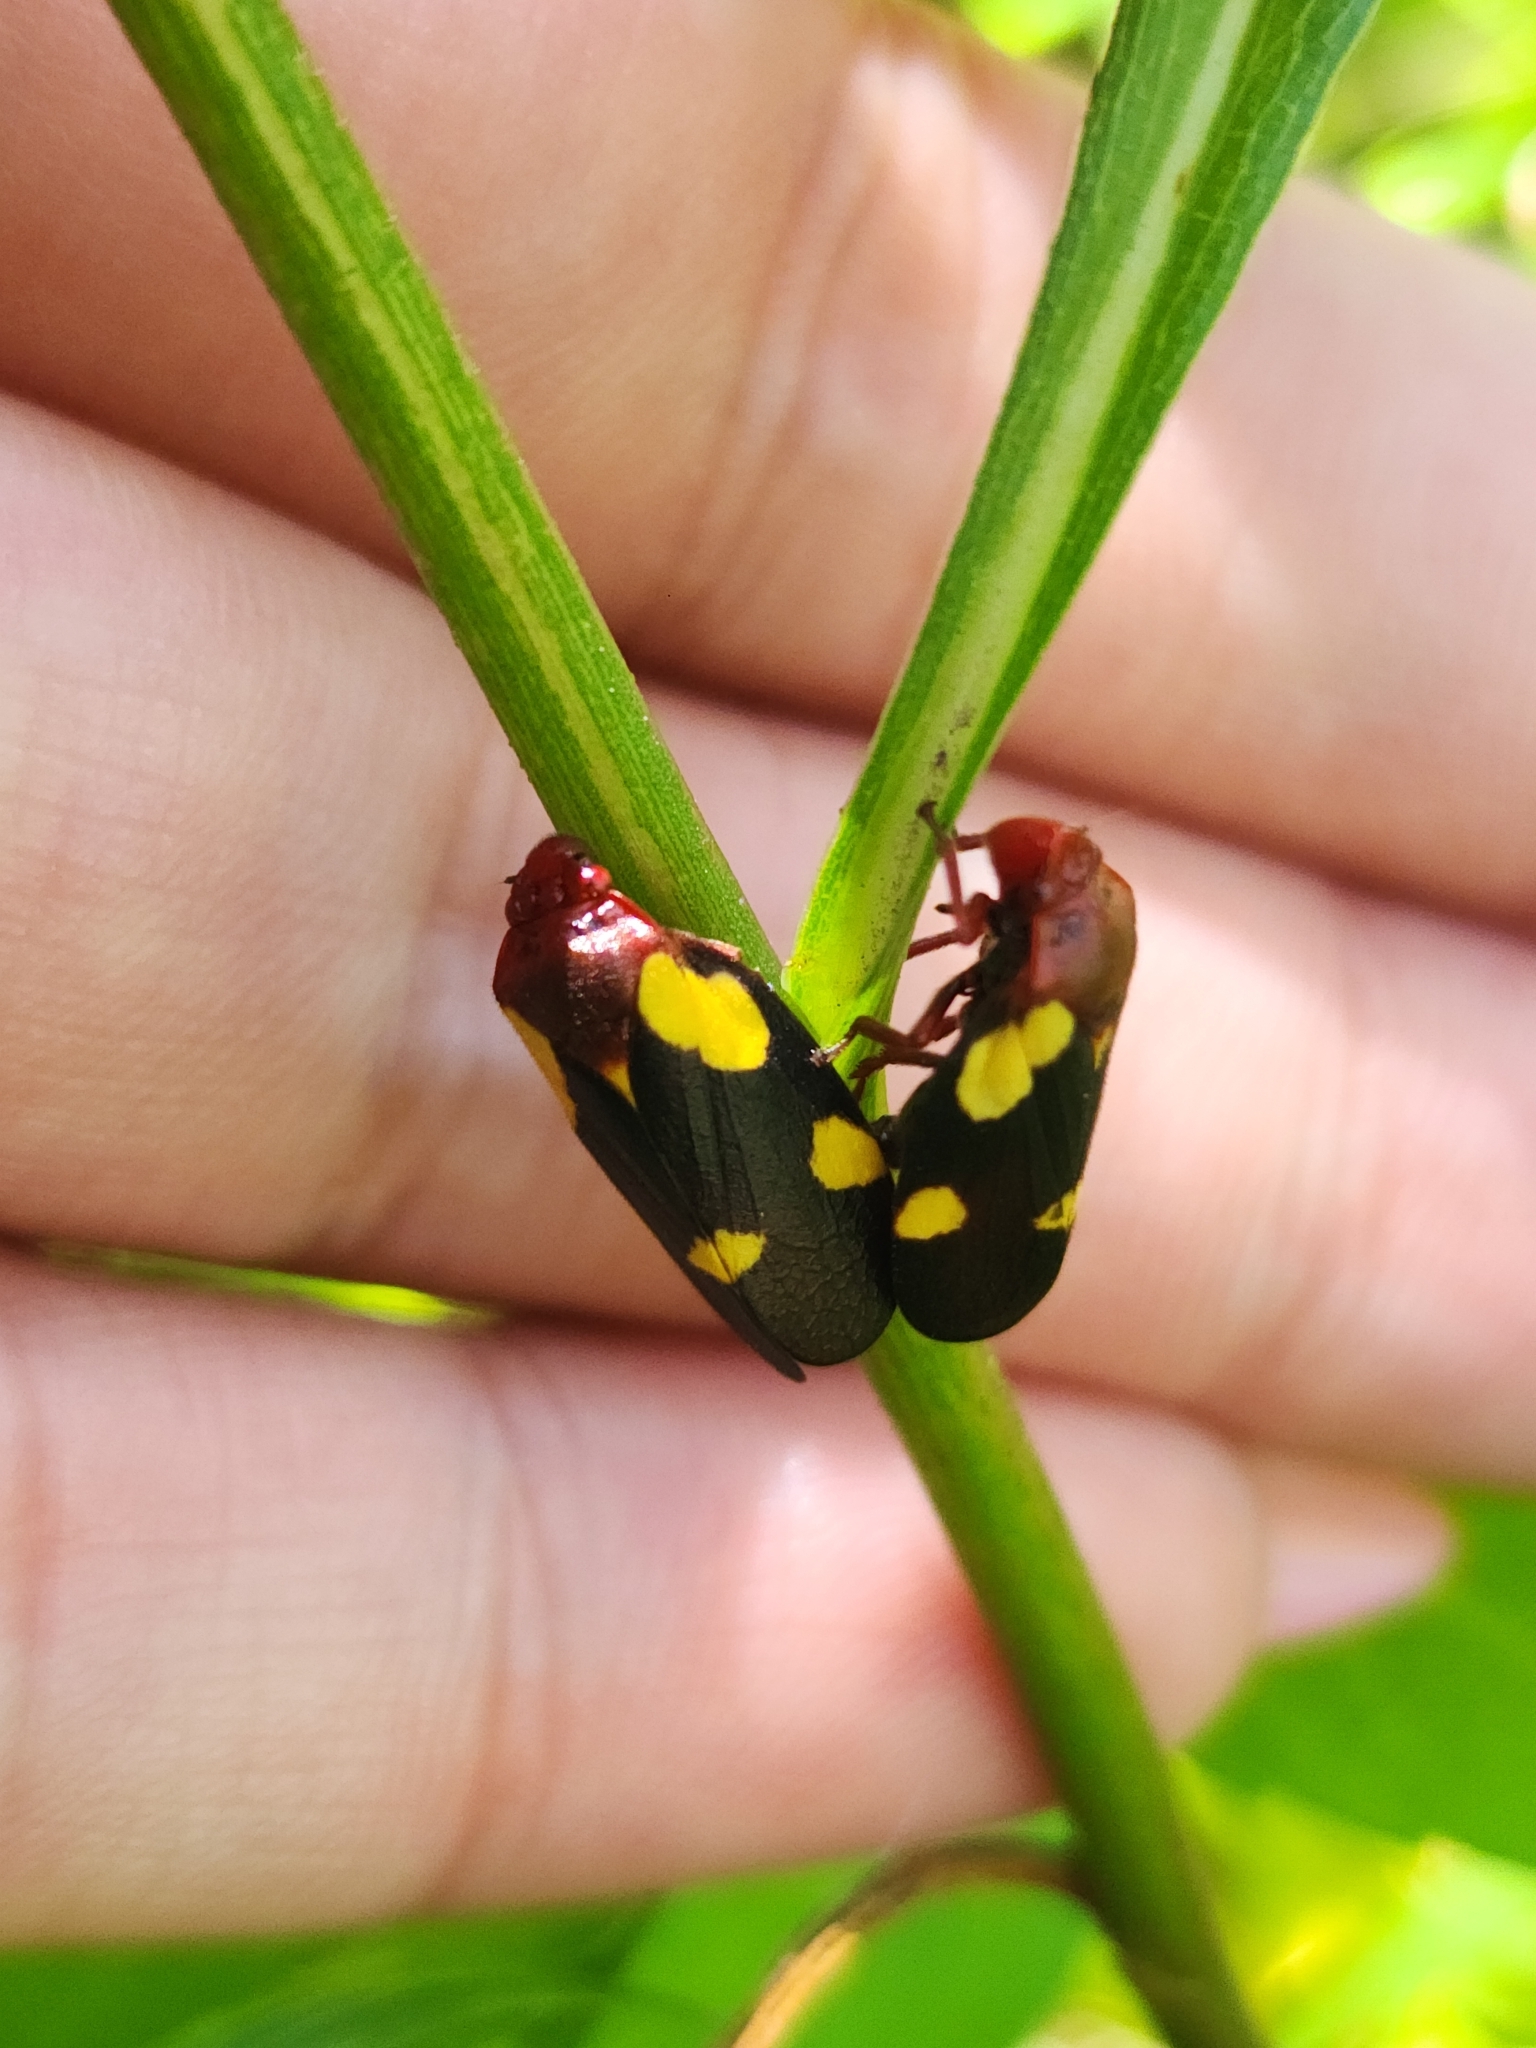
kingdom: Animalia
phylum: Arthropoda
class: Insecta
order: Hemiptera
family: Cercopidae
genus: Sphenorhina
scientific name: Sphenorhina limbata
